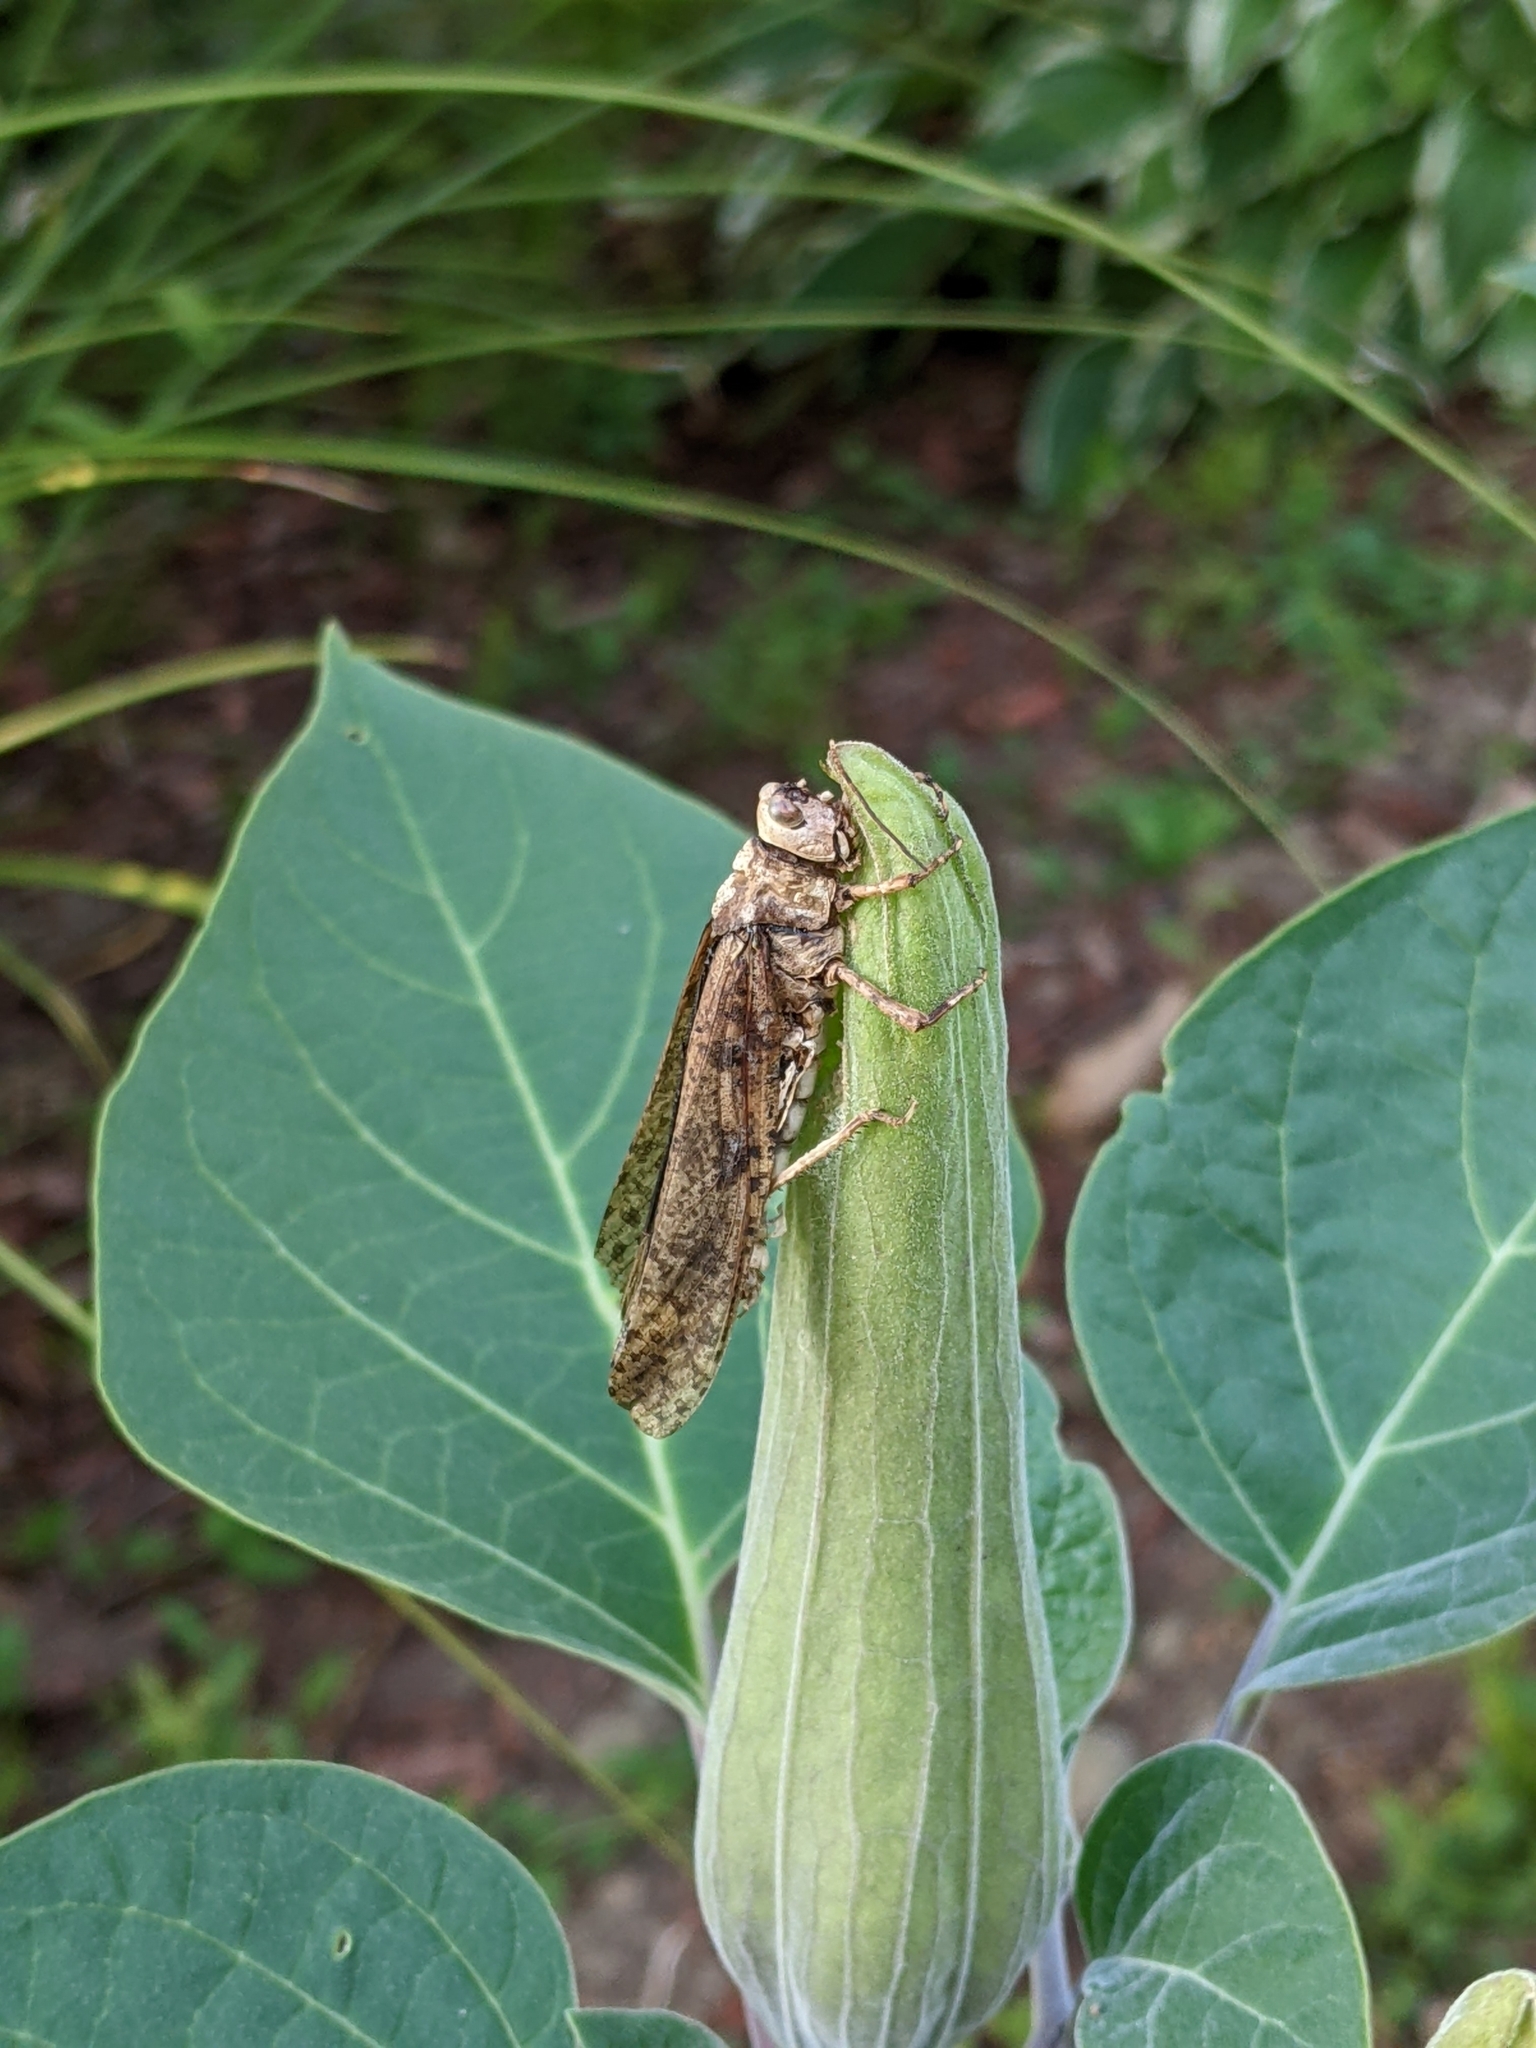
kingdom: Animalia
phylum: Arthropoda
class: Insecta
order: Orthoptera
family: Acrididae
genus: Dissosteira
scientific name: Dissosteira carolina
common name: Carolina grasshopper
